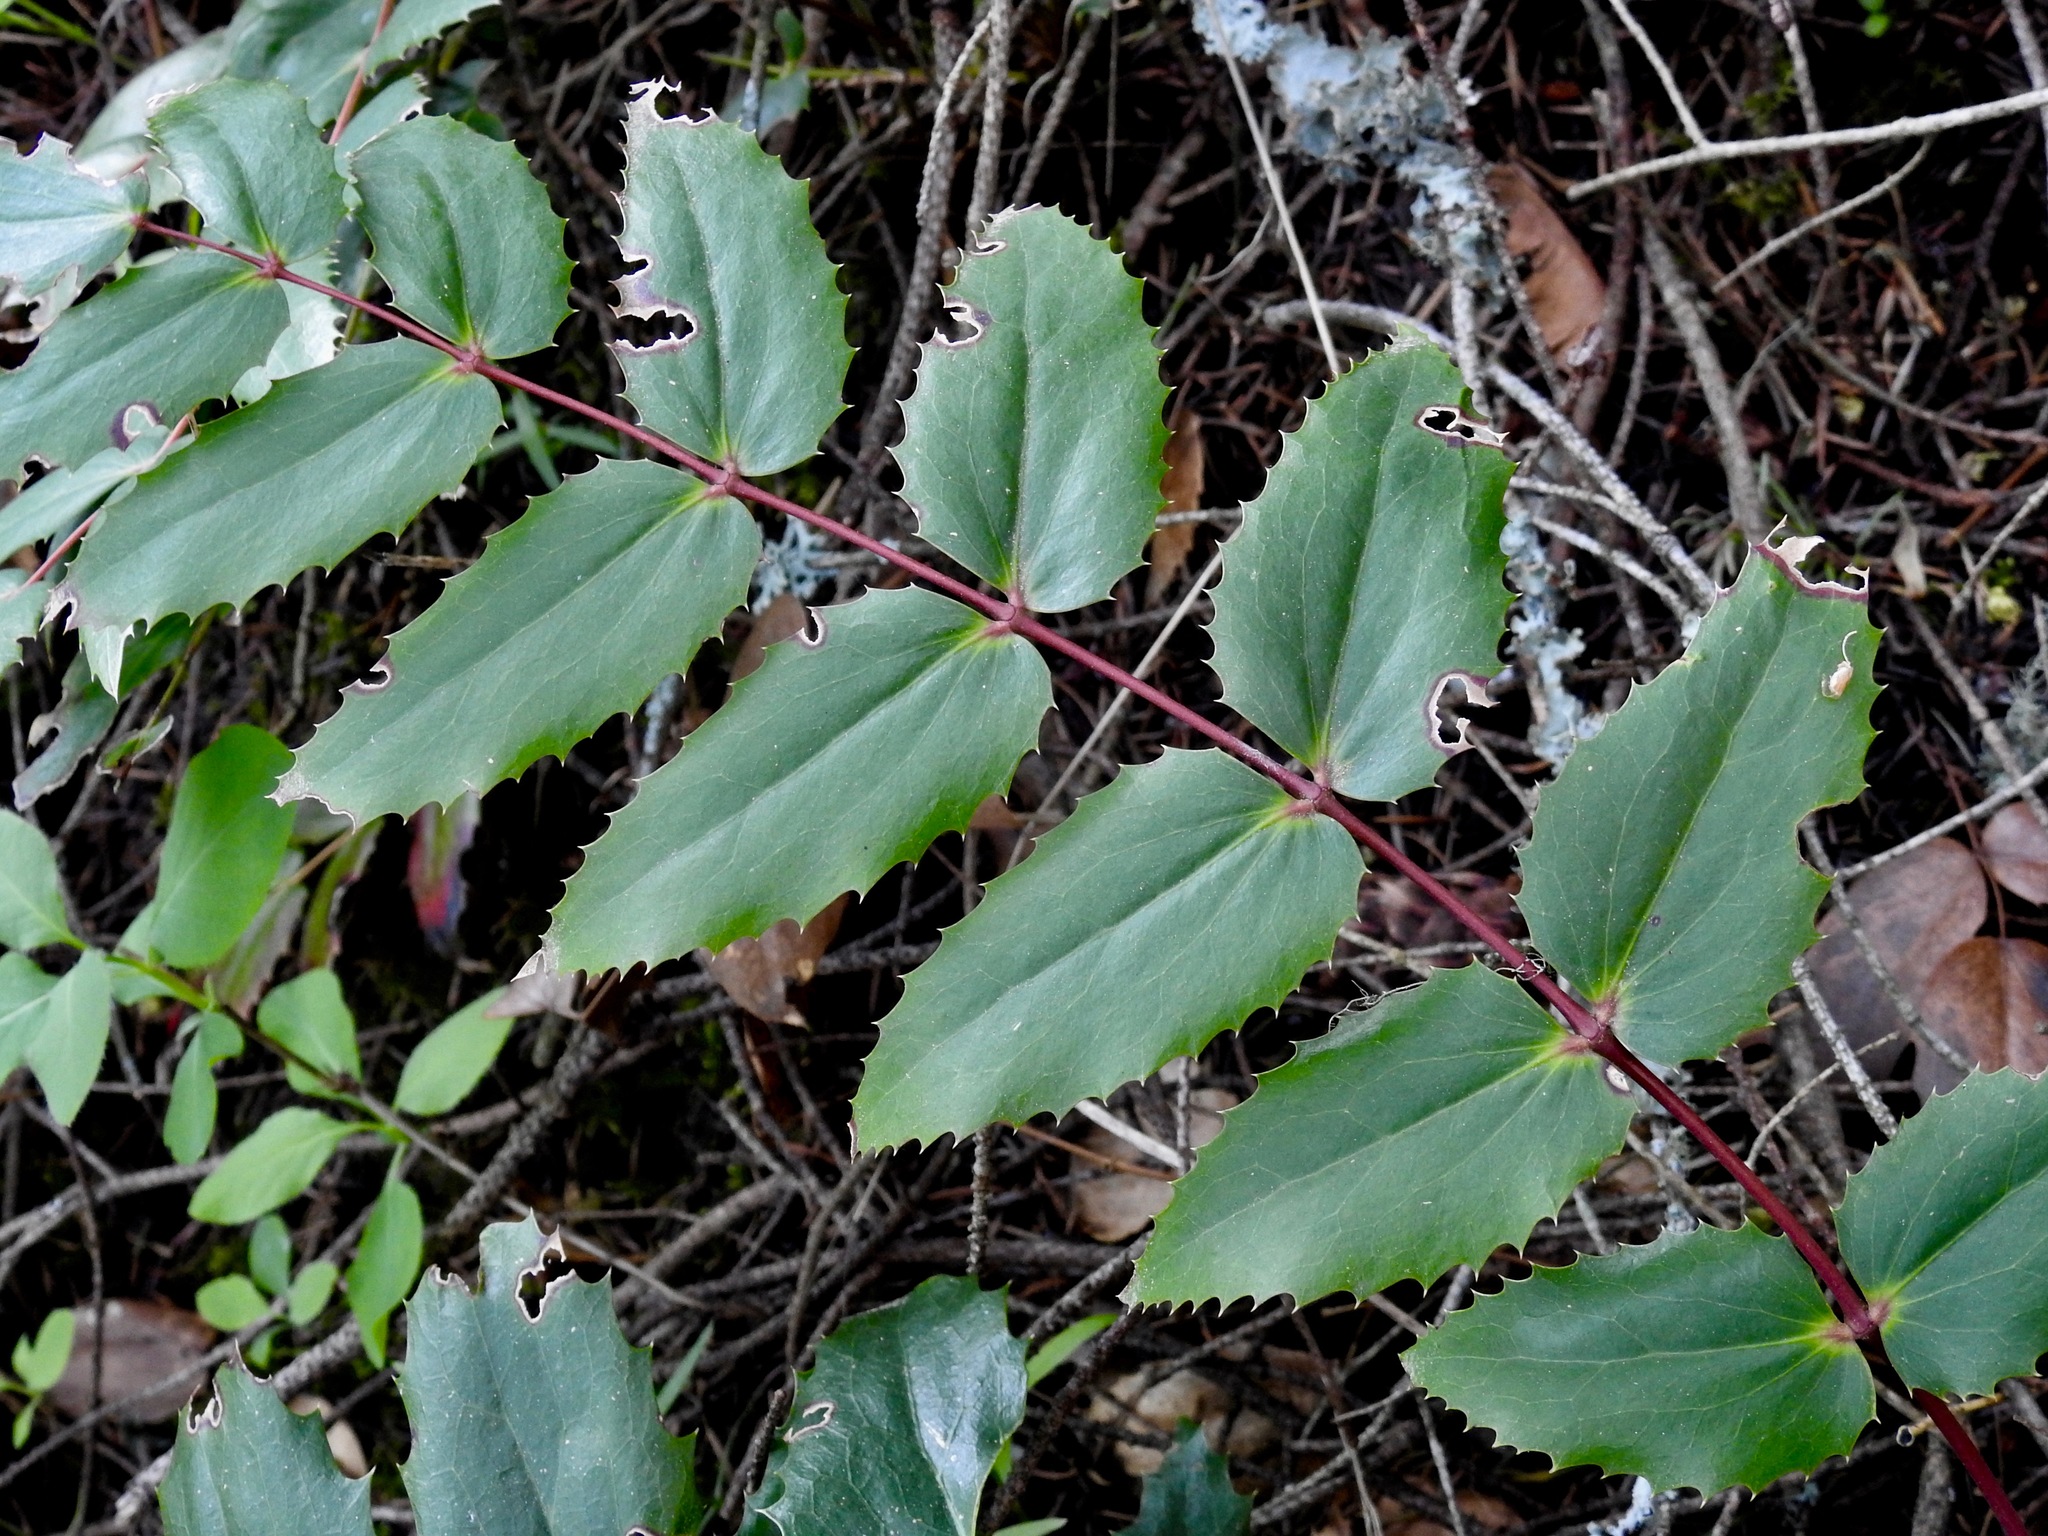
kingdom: Plantae
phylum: Tracheophyta
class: Magnoliopsida
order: Ranunculales
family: Berberidaceae
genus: Mahonia
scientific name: Mahonia nervosa
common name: Cascade oregon-grape
